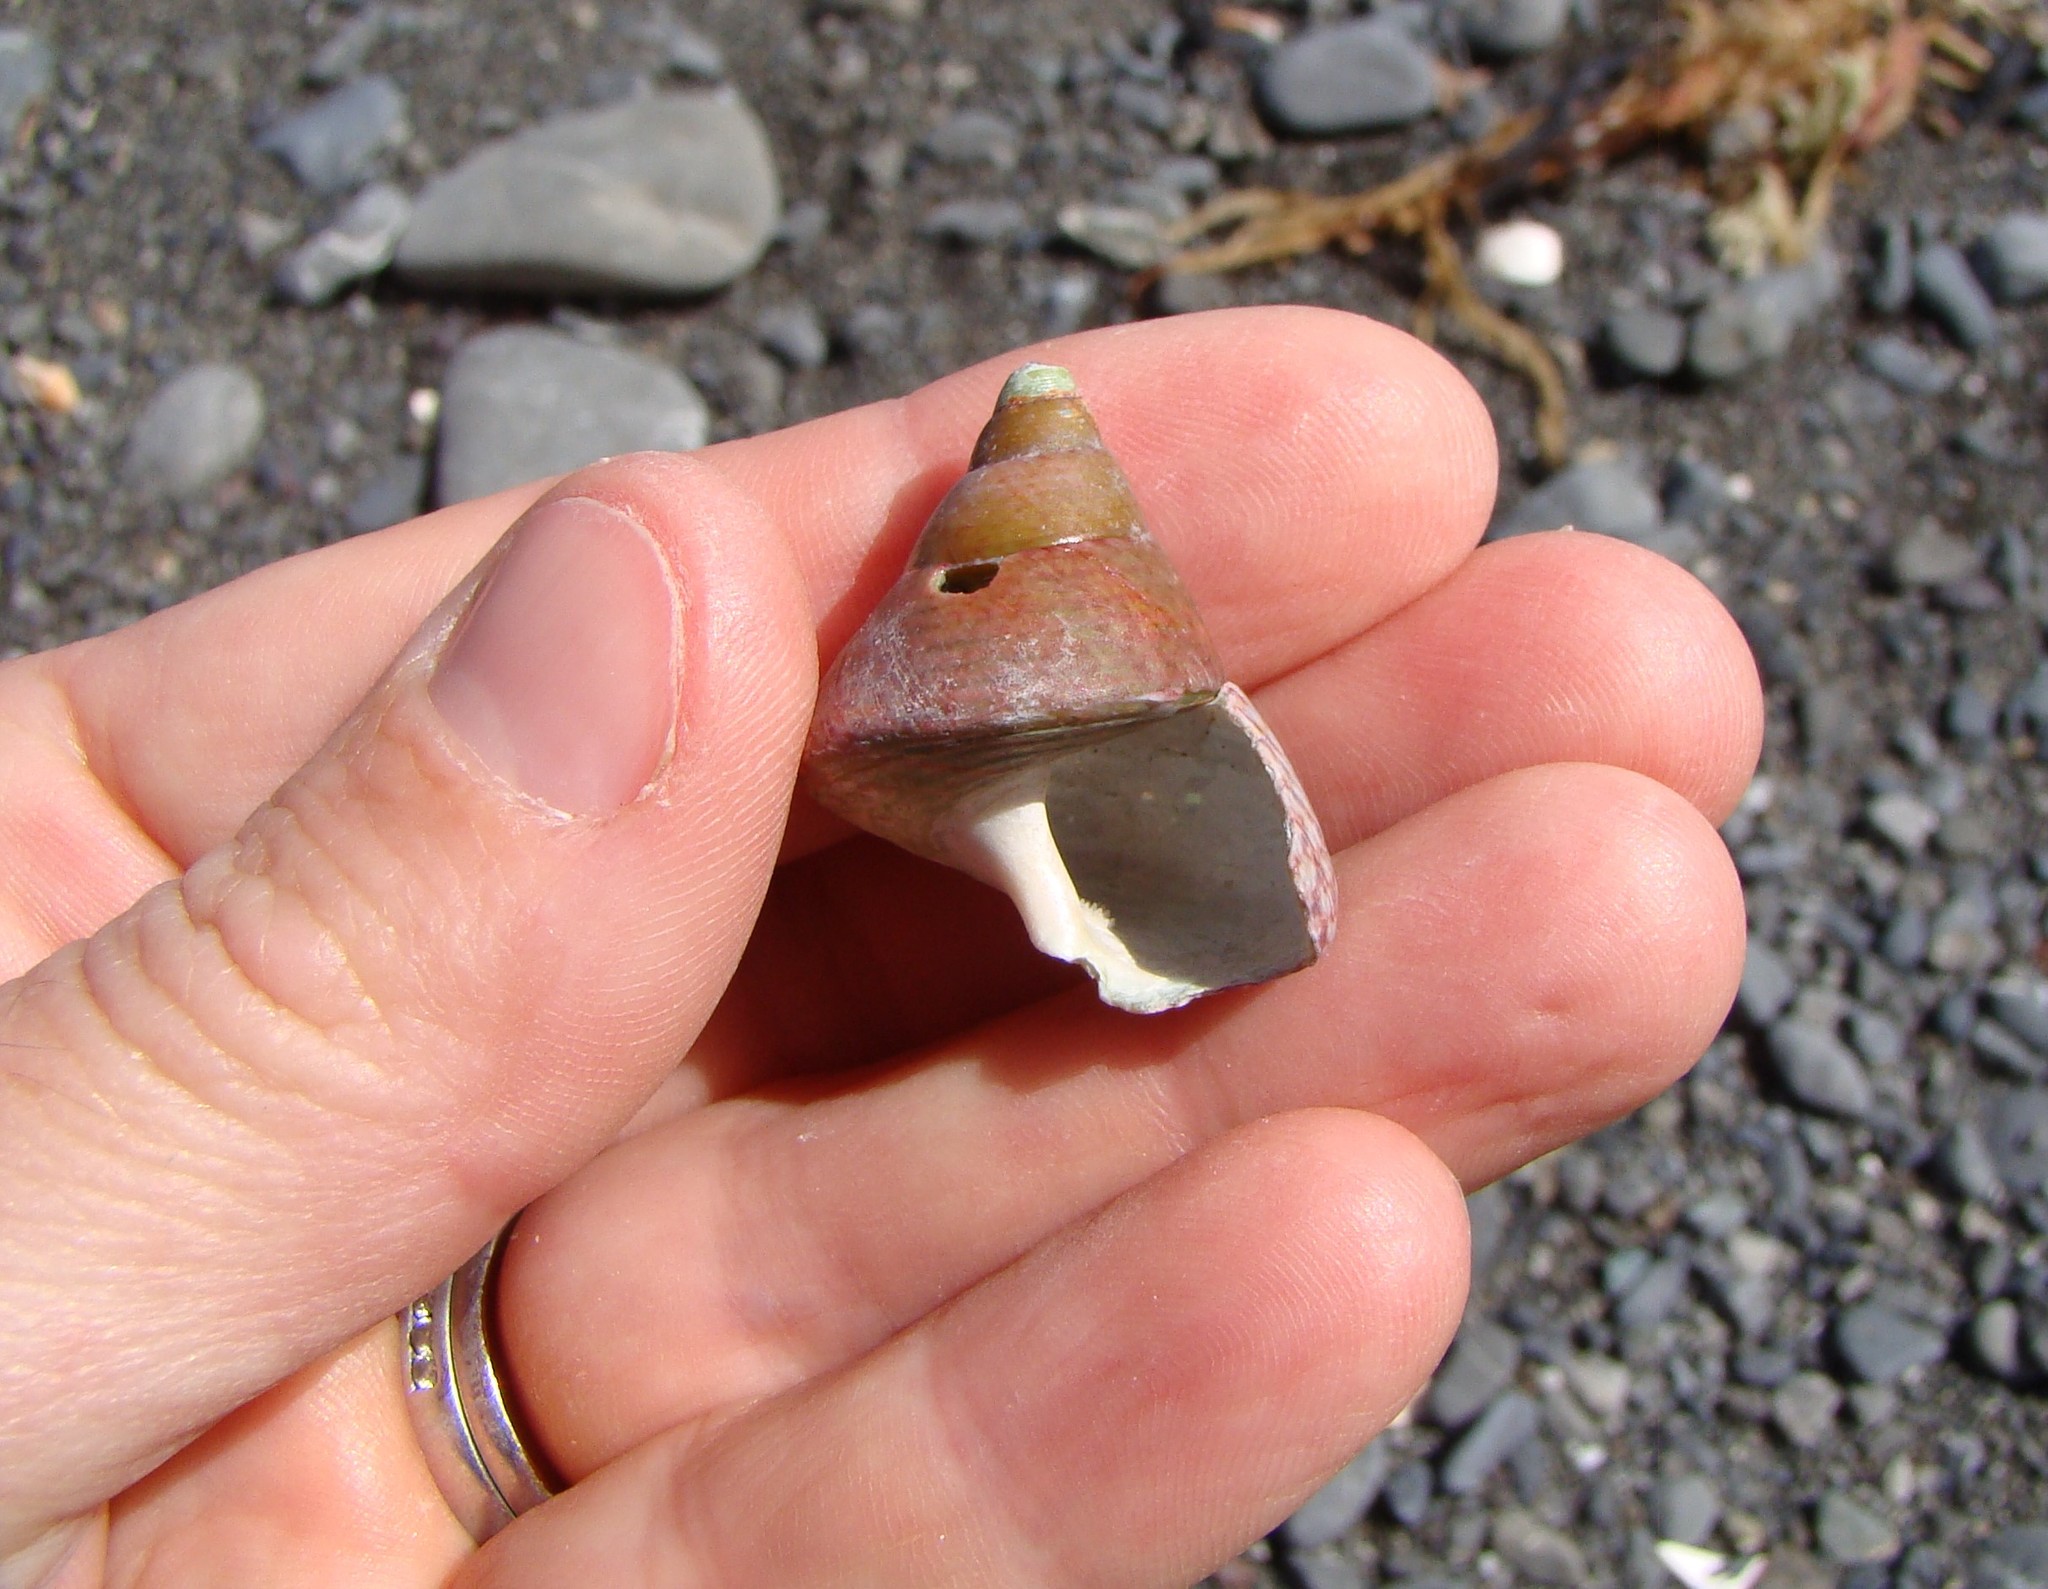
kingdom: Animalia
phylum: Mollusca
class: Gastropoda
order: Trochida
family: Trochidae
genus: Cantharidus
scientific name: Cantharidus opalus
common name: Opal jewel topsnail
